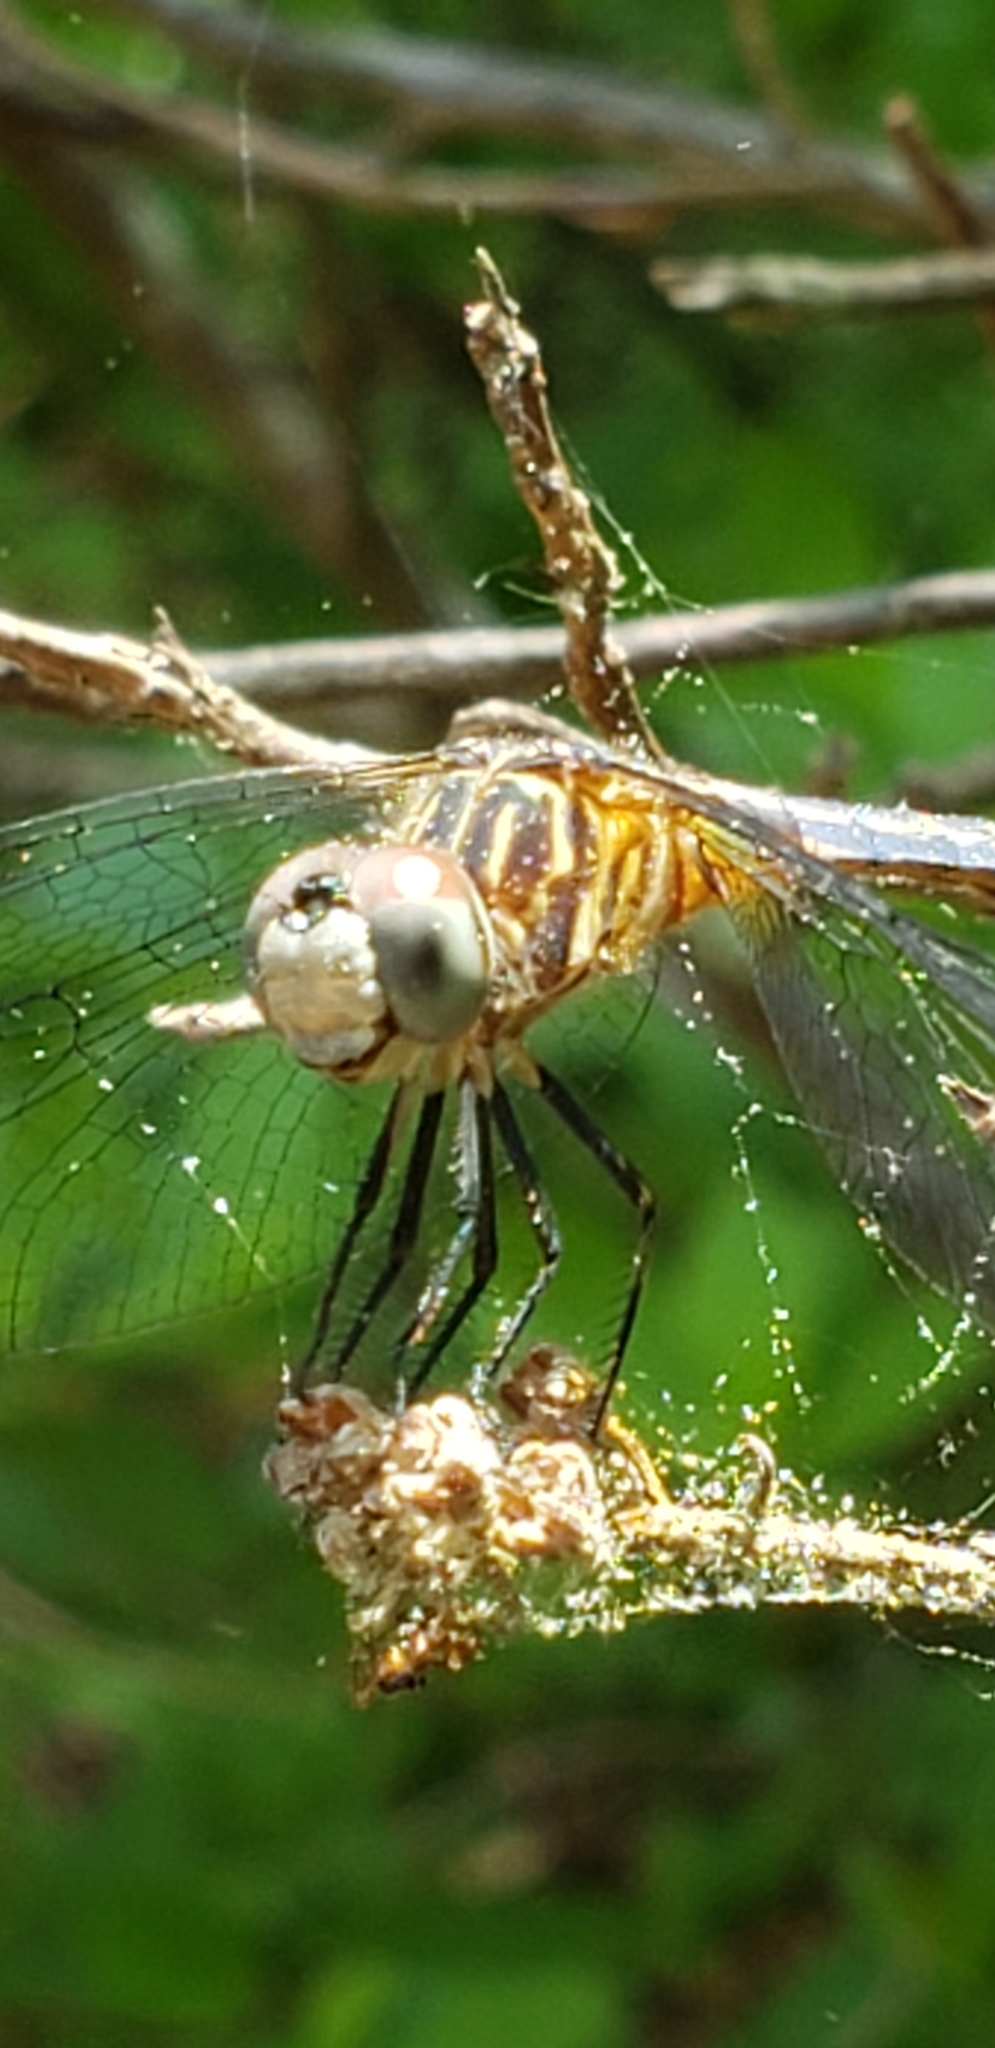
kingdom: Animalia
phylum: Arthropoda
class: Insecta
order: Odonata
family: Libellulidae
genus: Pachydiplax
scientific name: Pachydiplax longipennis
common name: Blue dasher
